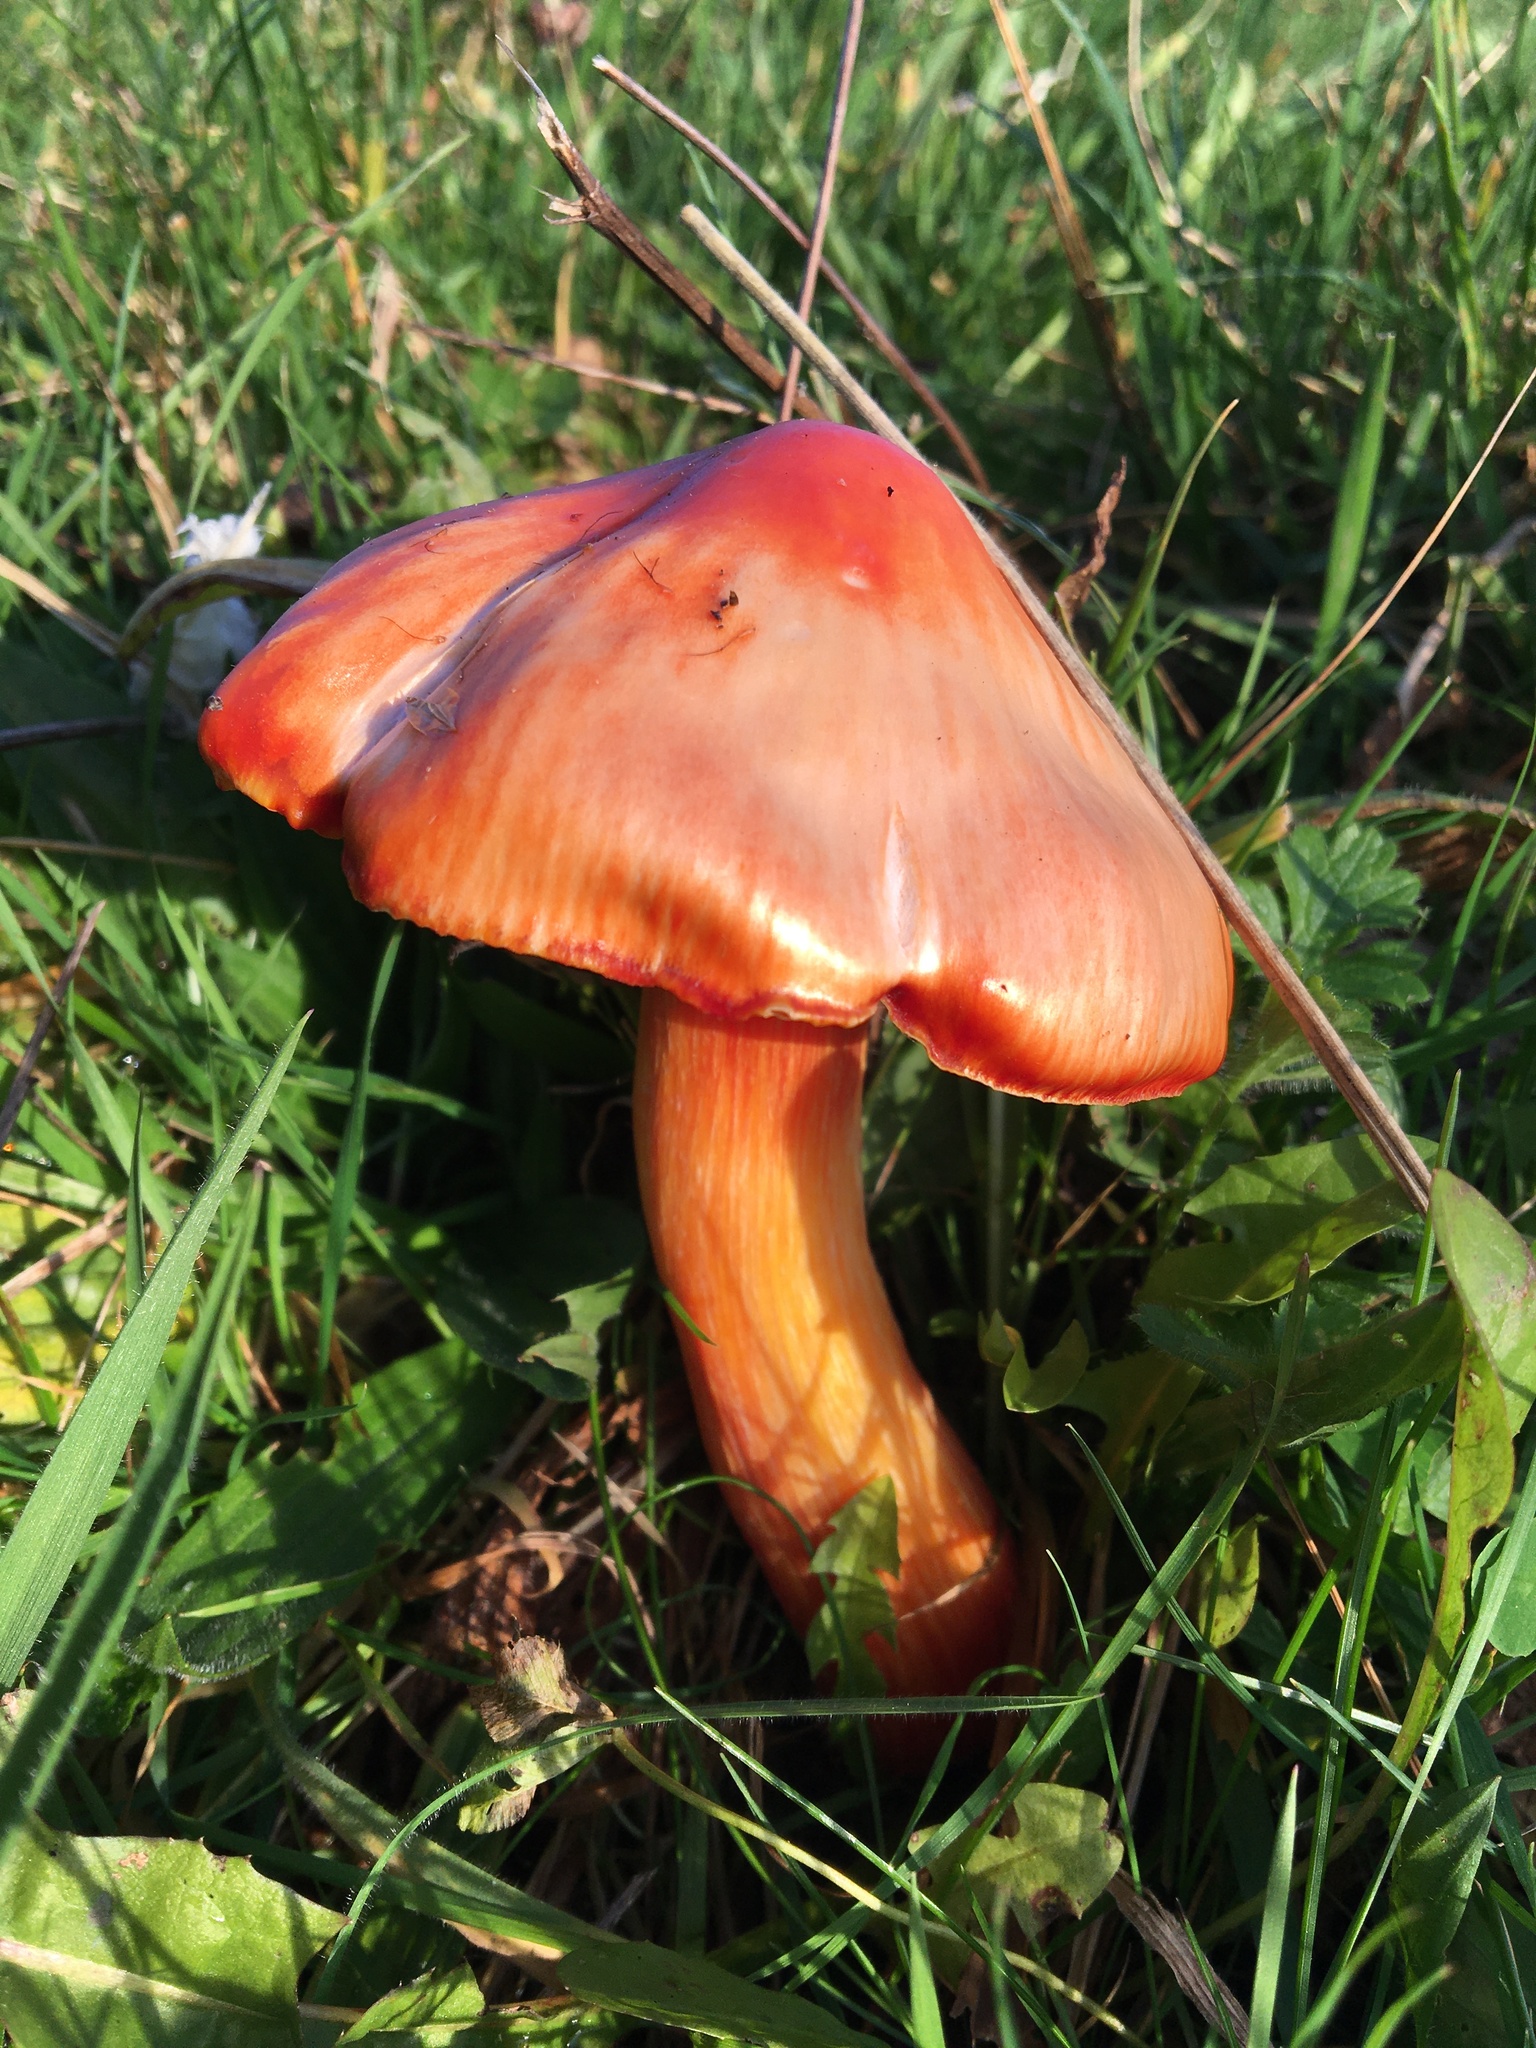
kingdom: Fungi
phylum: Basidiomycota
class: Agaricomycetes
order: Agaricales
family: Hygrophoraceae
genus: Hygrocybe
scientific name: Hygrocybe punicea
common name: Crimson waxcap
